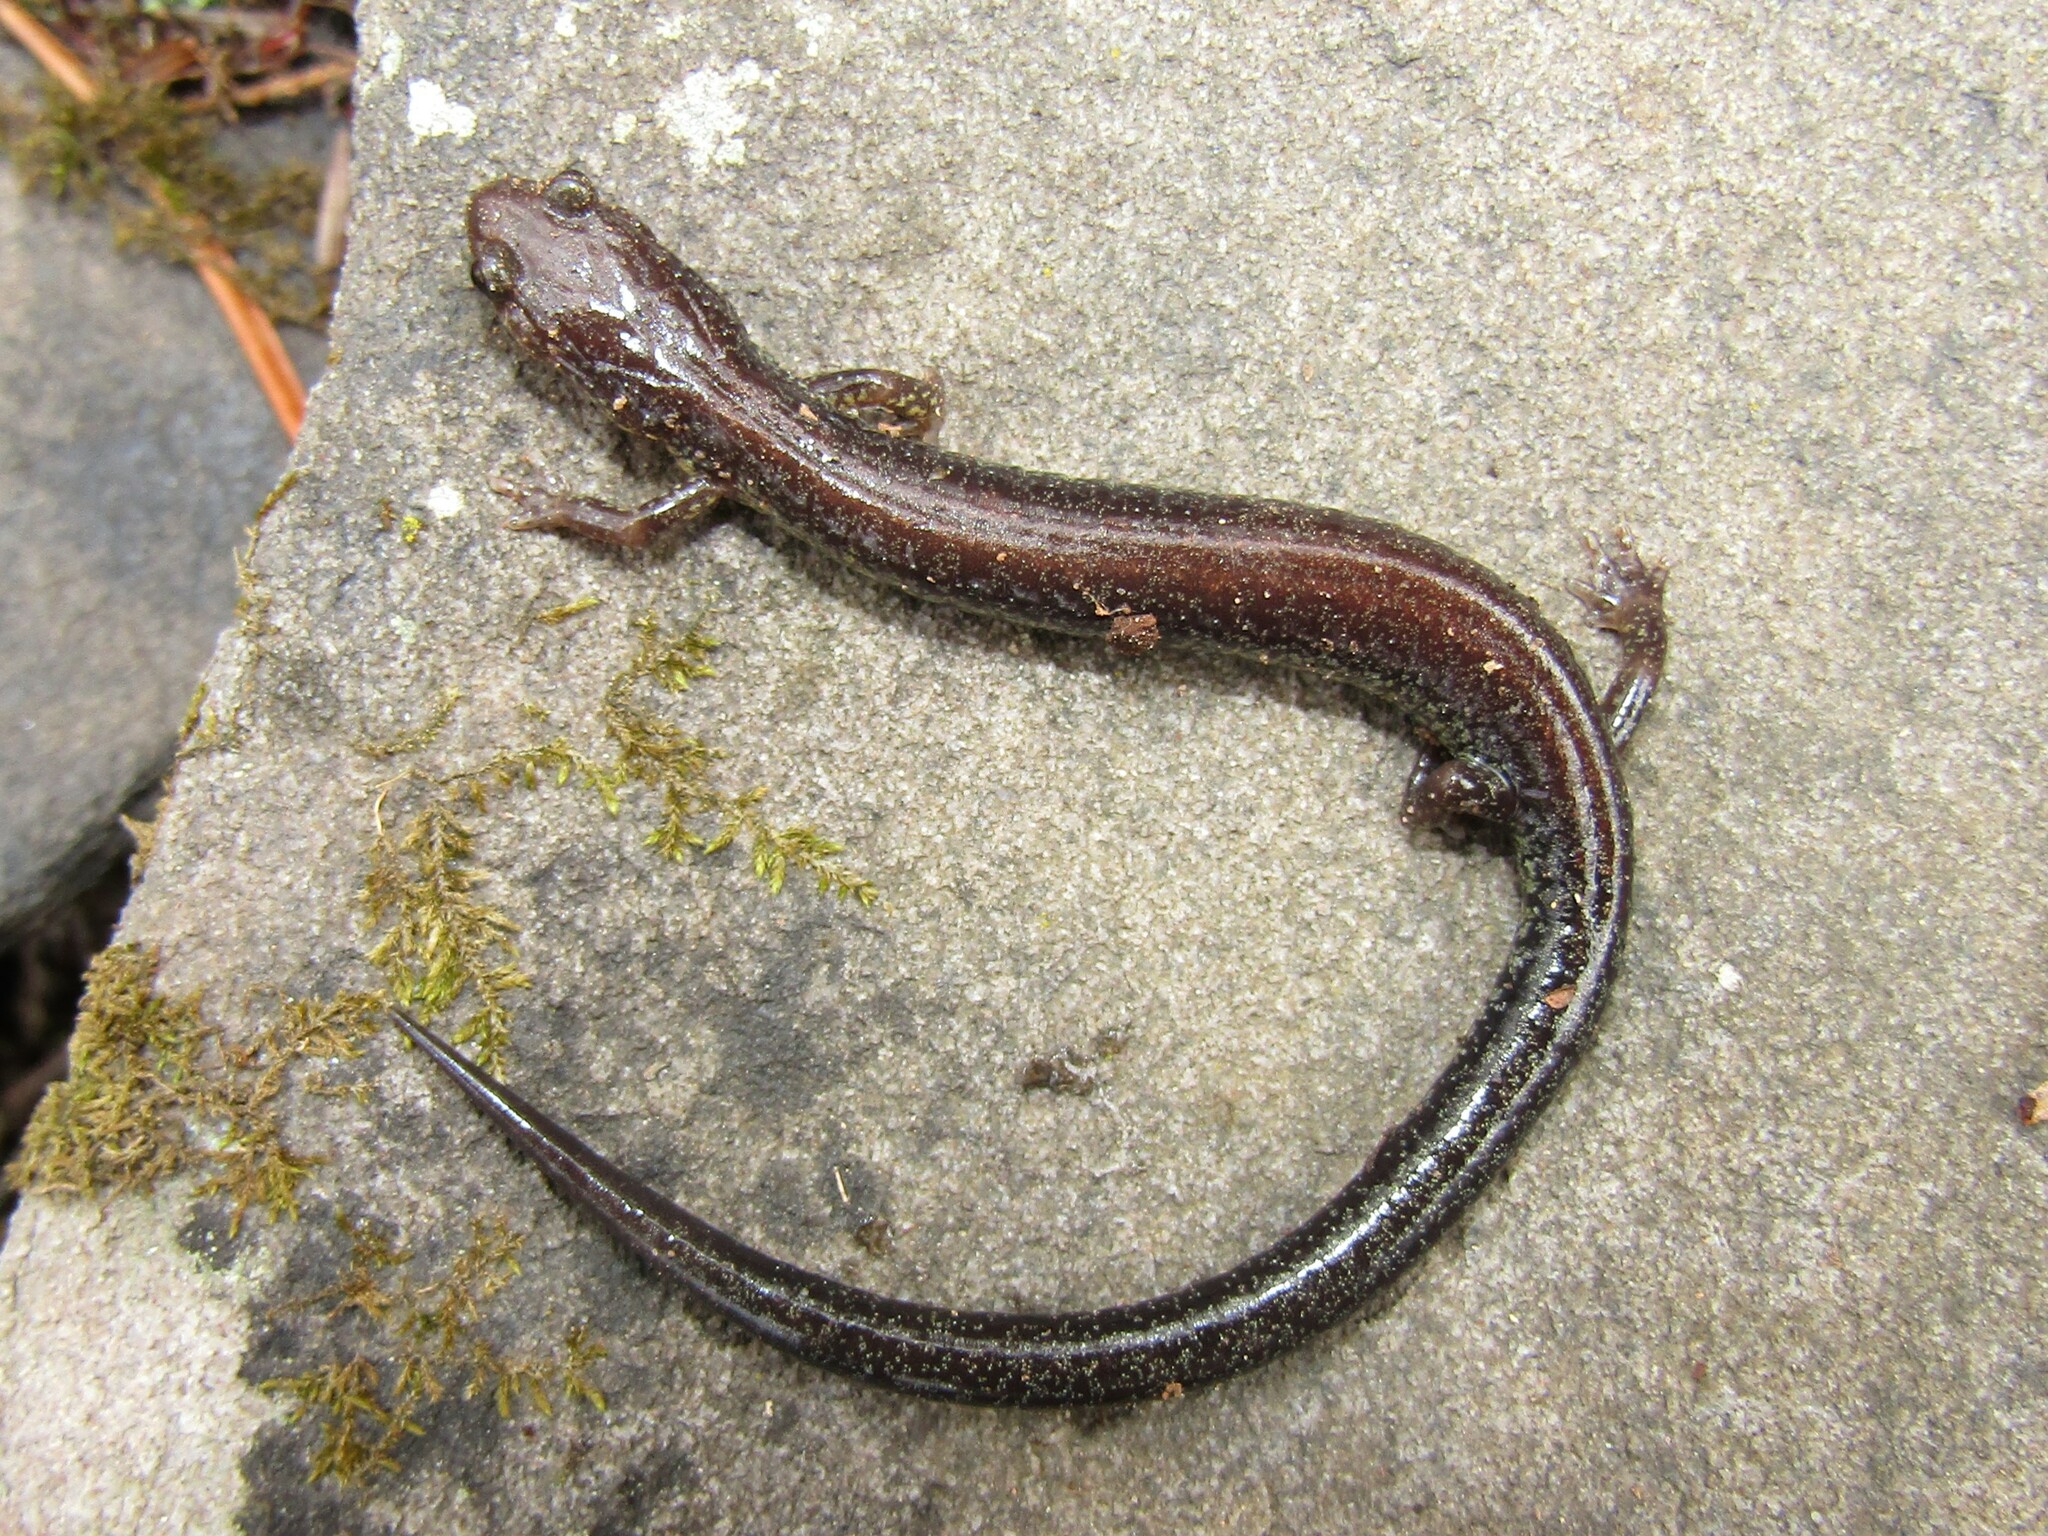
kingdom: Animalia
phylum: Chordata
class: Amphibia
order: Caudata
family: Plethodontidae
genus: Plethodon
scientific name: Plethodon virginia
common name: Shenandoah mountain salamander
